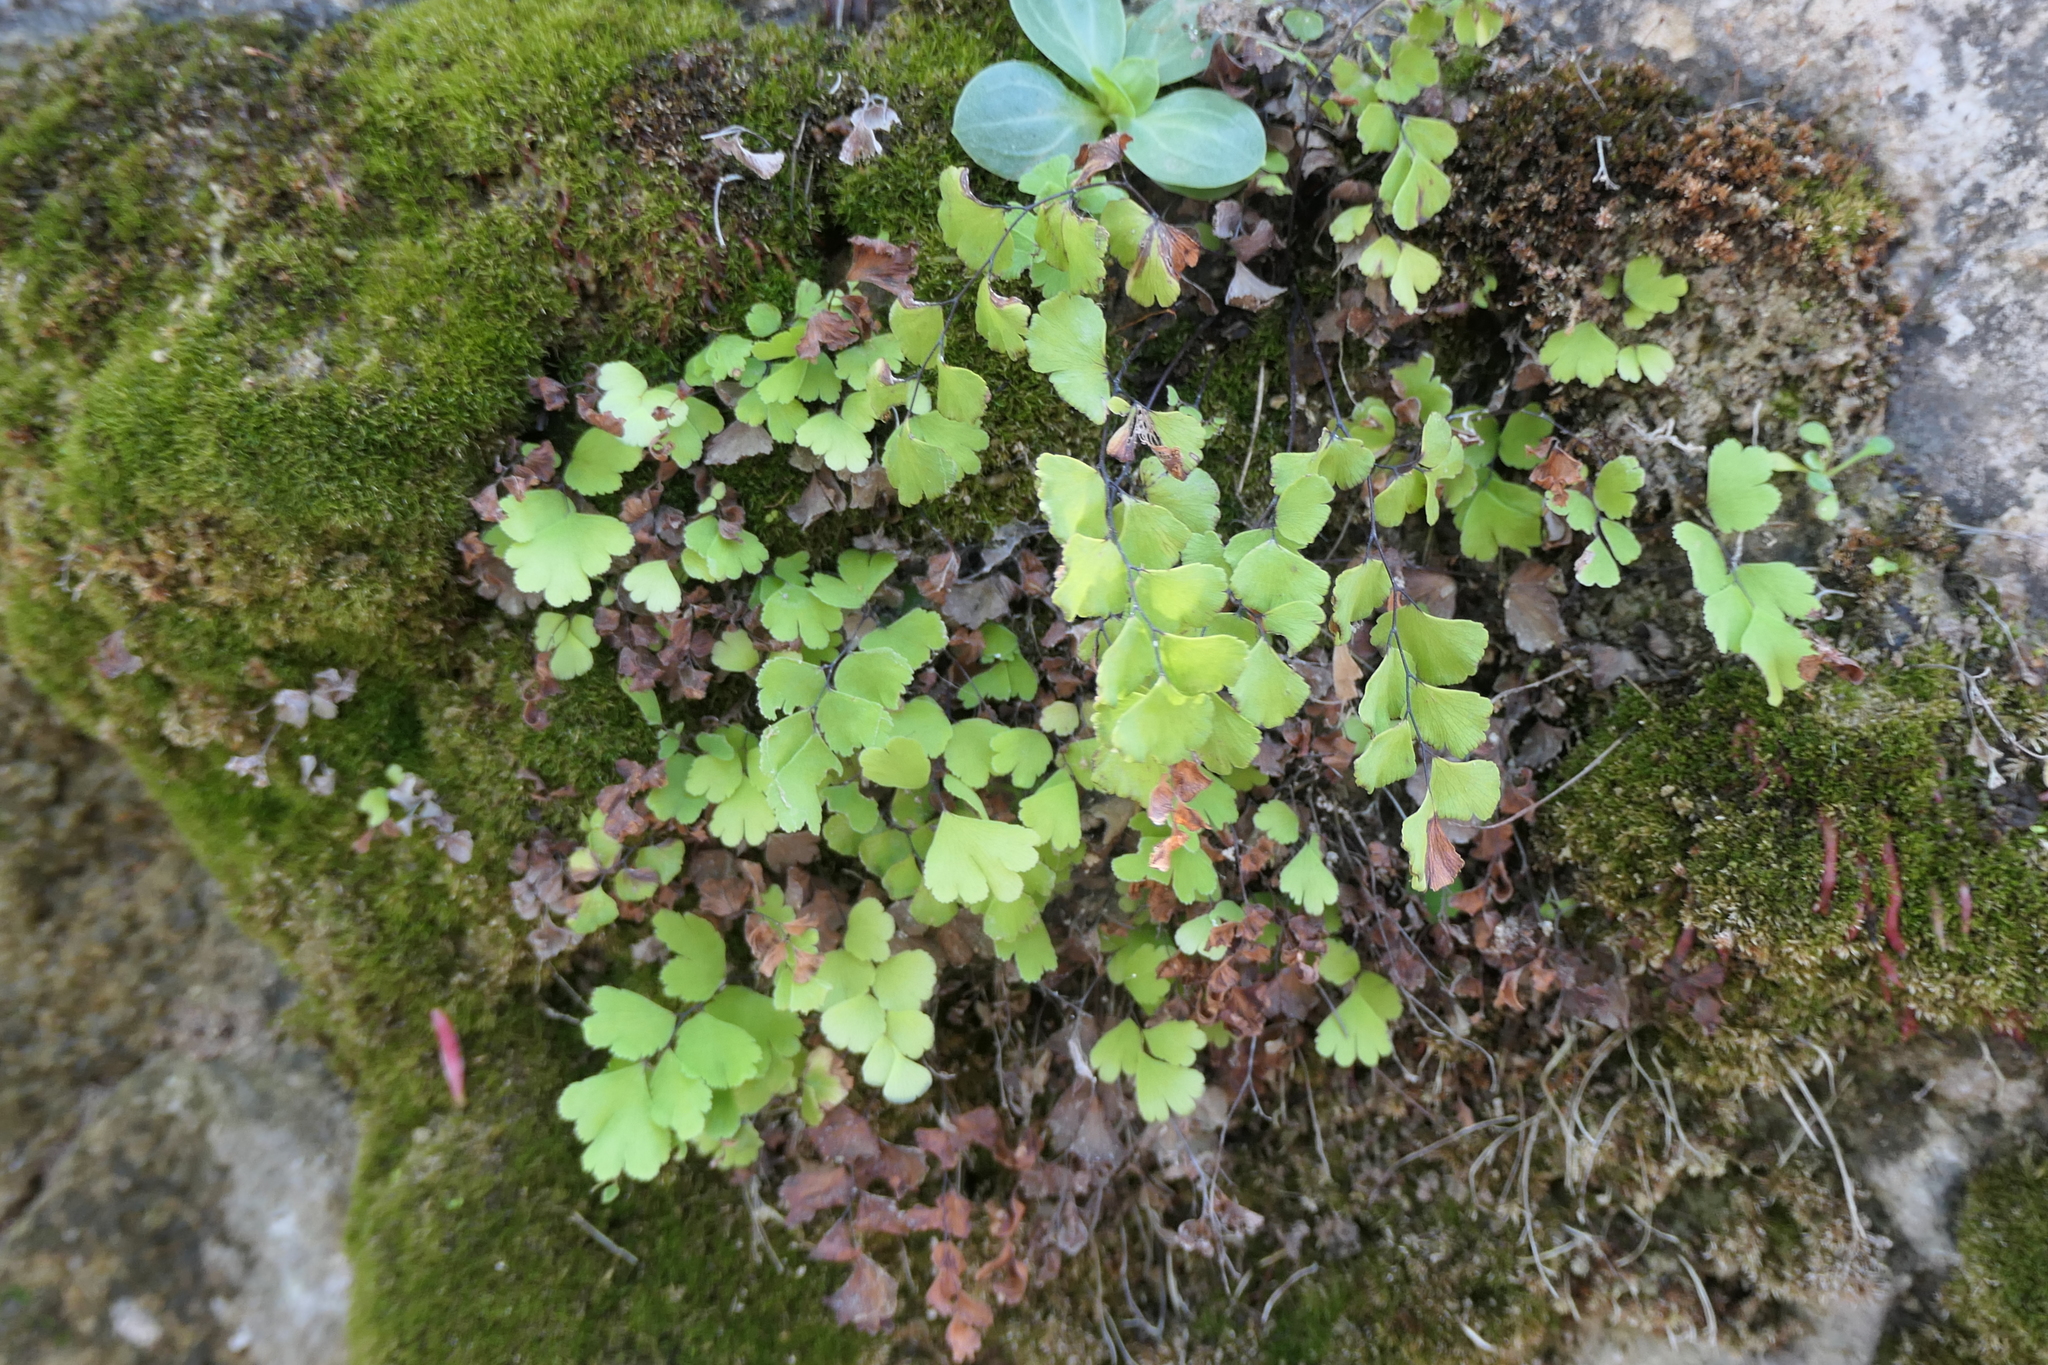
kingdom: Plantae
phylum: Tracheophyta
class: Polypodiopsida
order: Polypodiales
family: Pteridaceae
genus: Adiantum
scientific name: Adiantum capillus-veneris
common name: Maidenhair fern
